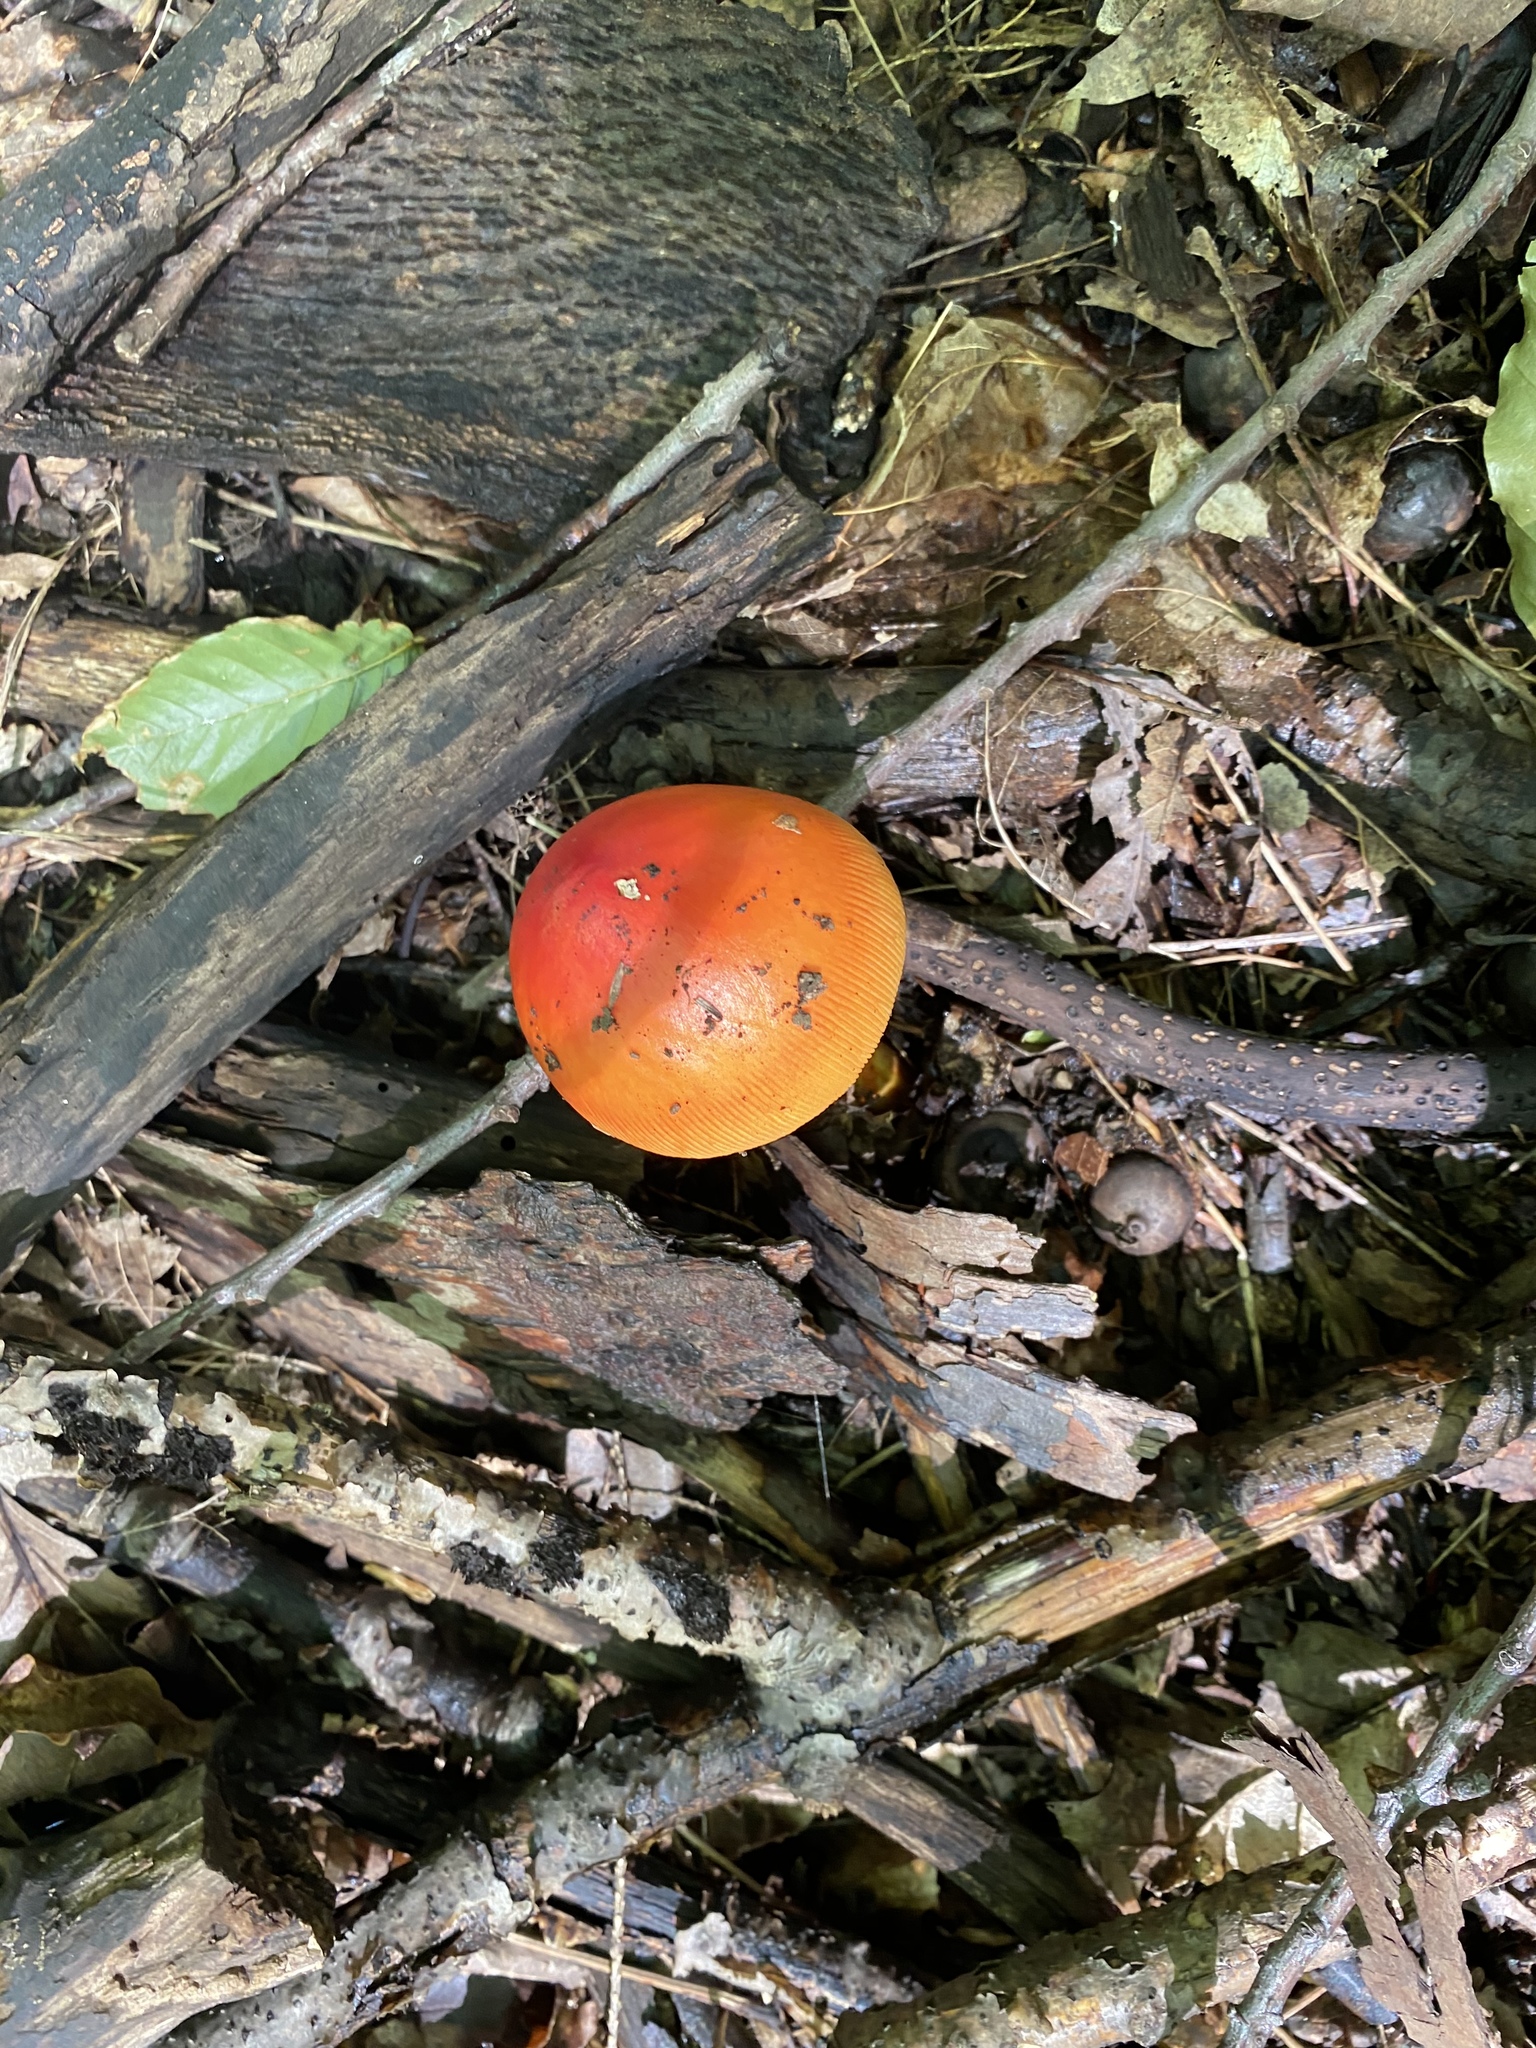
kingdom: Fungi
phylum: Basidiomycota
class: Agaricomycetes
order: Agaricales
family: Amanitaceae
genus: Amanita
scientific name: Amanita jacksonii
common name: Jackson's slender caesar
